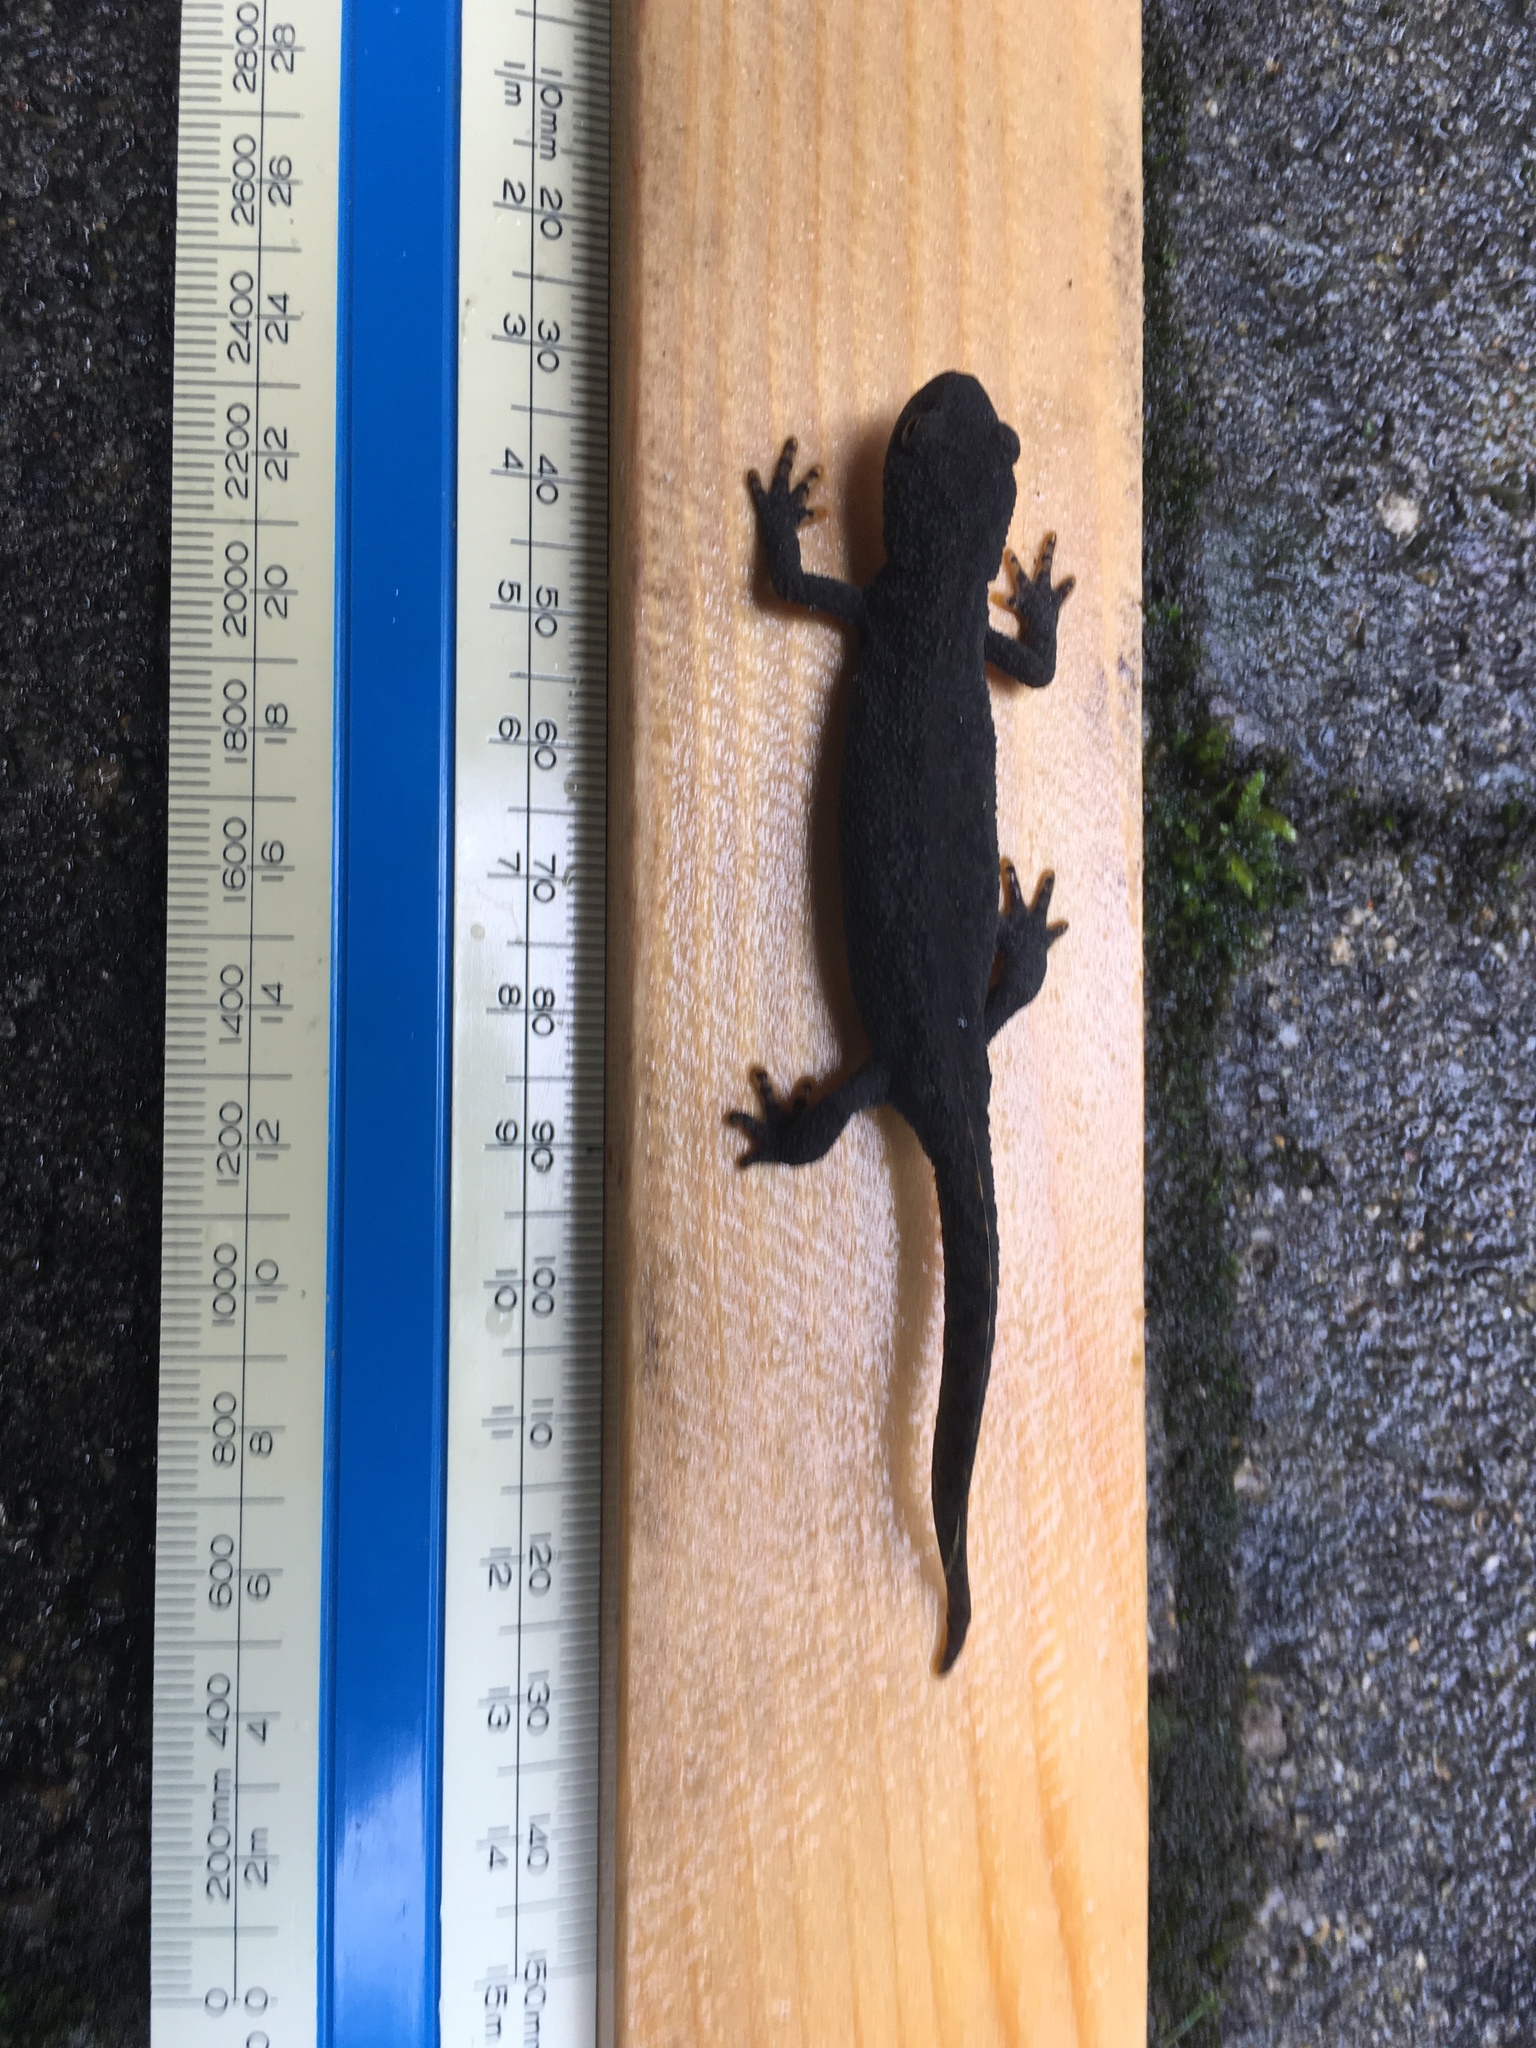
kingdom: Animalia
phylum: Chordata
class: Amphibia
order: Caudata
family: Salamandridae
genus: Ichthyosaura
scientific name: Ichthyosaura alpestris
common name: Alpine newt
